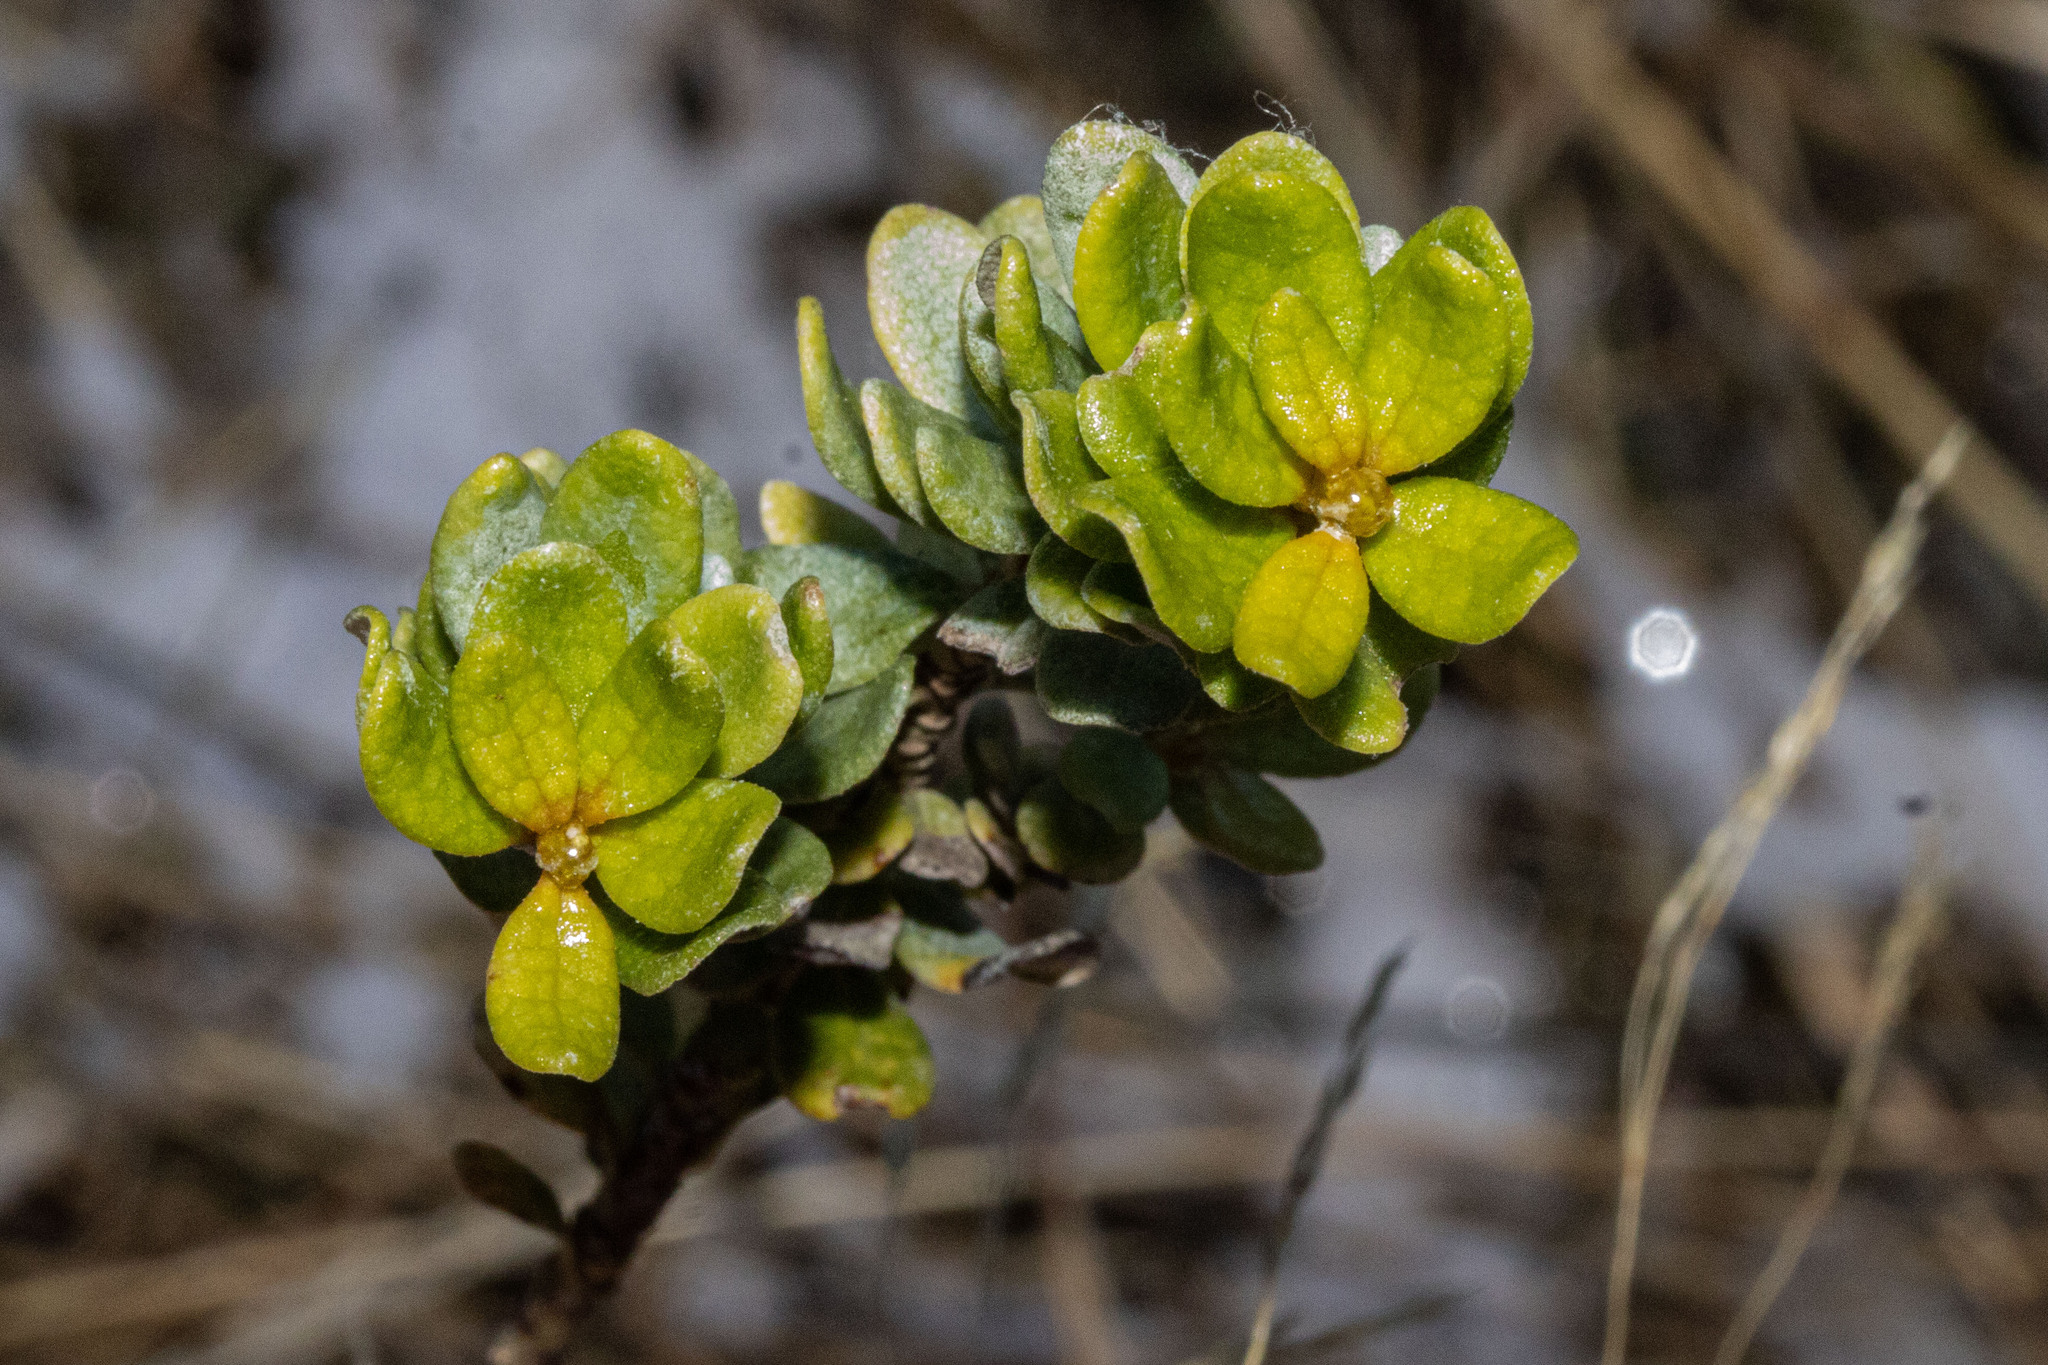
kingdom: Plantae
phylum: Tracheophyta
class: Magnoliopsida
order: Asterales
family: Asteraceae
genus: Olearia
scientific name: Olearia nummularifolia
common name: Sticky daisybush
